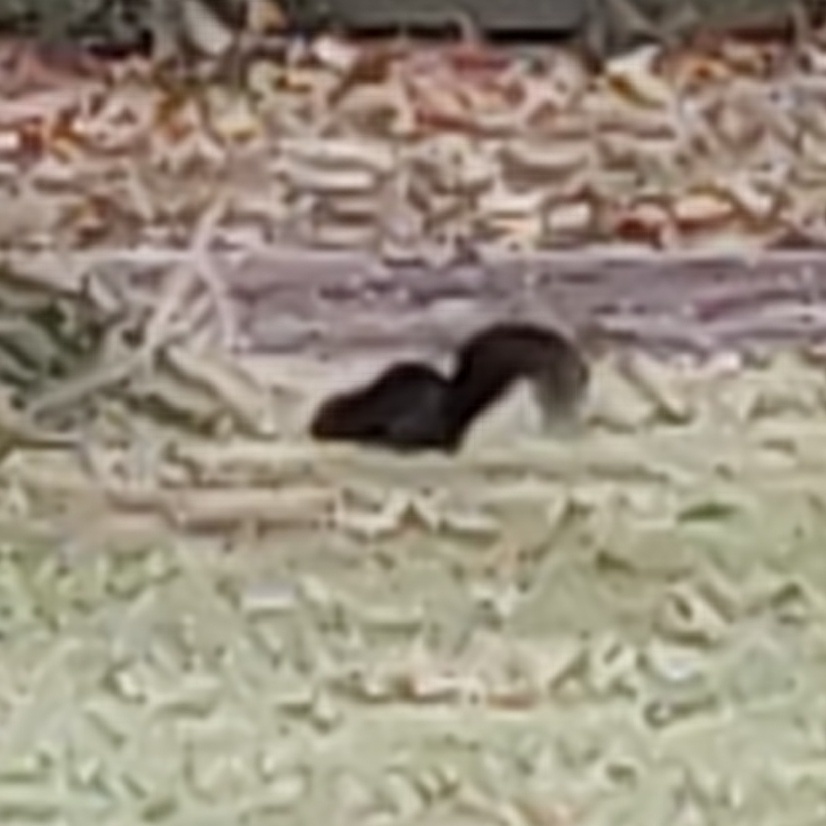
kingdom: Animalia
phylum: Chordata
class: Mammalia
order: Rodentia
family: Sciuridae
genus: Sciurus
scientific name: Sciurus carolinensis
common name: Eastern gray squirrel
